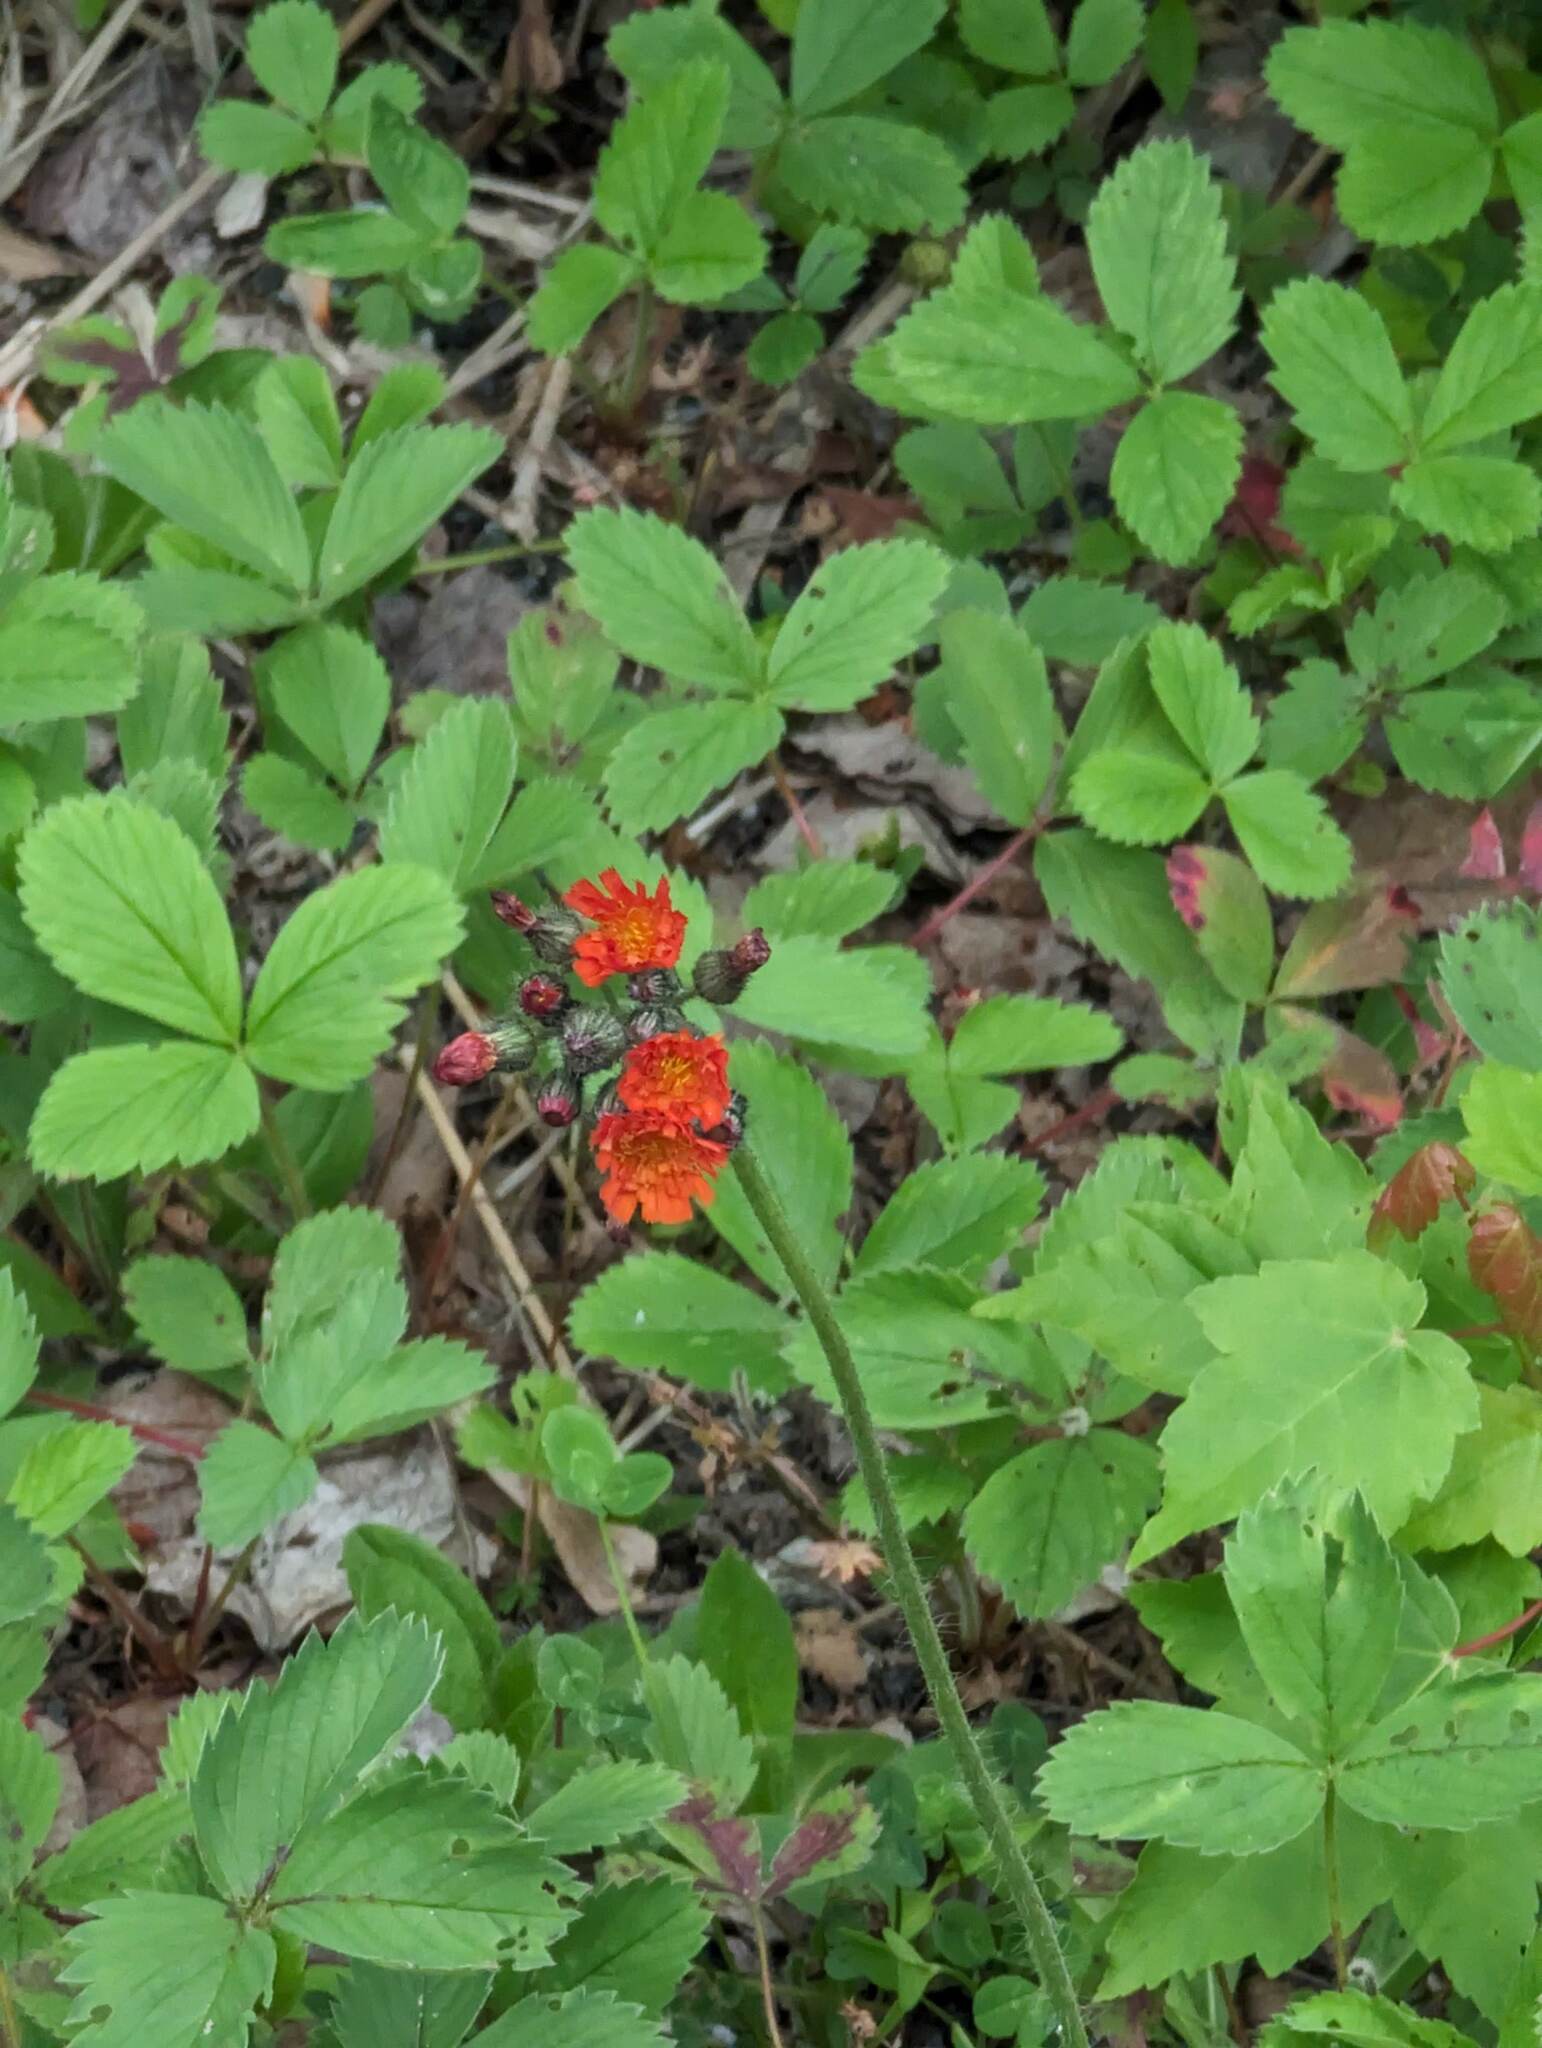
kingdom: Plantae
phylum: Tracheophyta
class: Magnoliopsida
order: Asterales
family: Asteraceae
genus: Pilosella
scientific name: Pilosella aurantiaca
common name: Fox-and-cubs
